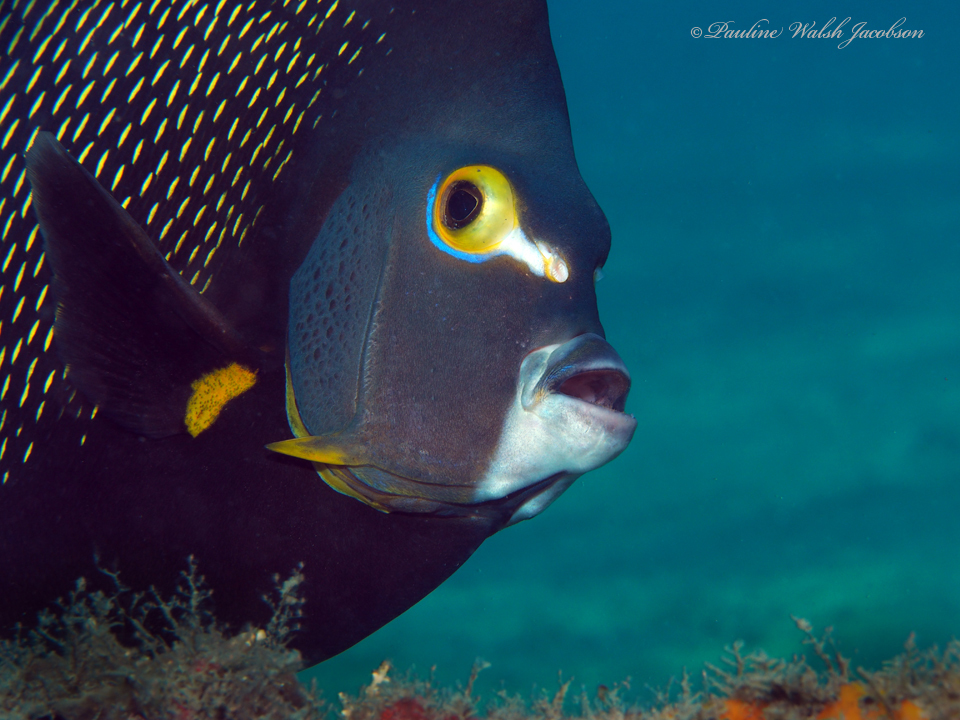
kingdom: Animalia
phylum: Chordata
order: Perciformes
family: Pomacanthidae
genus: Pomacanthus
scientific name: Pomacanthus paru
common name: French angelfish
